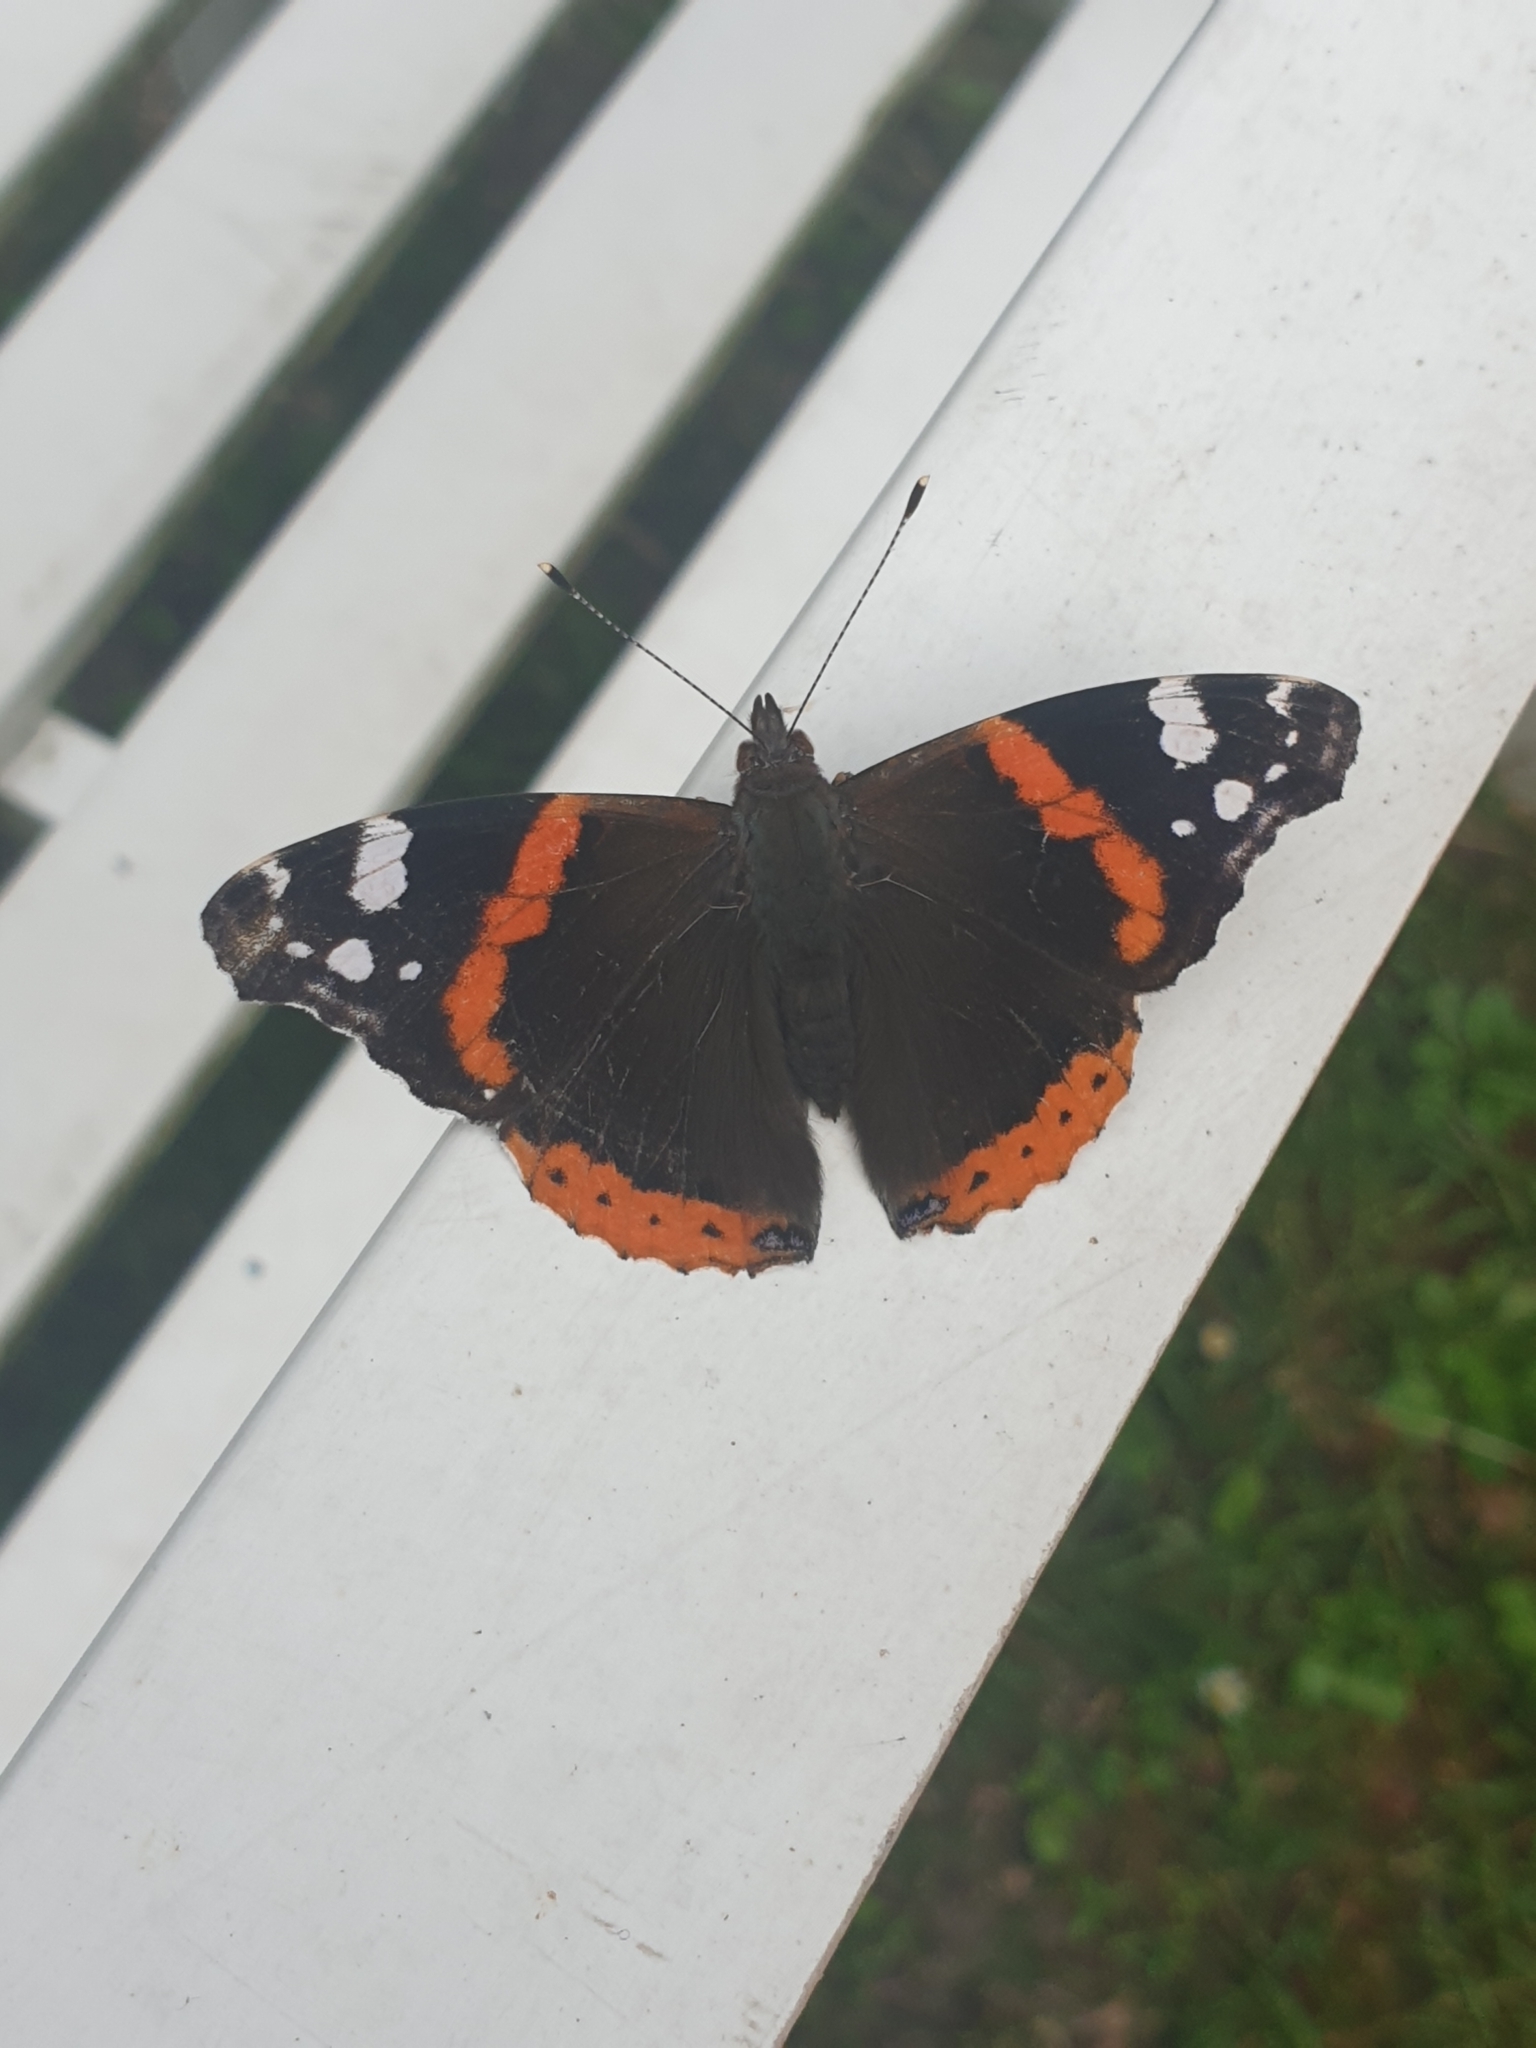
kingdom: Animalia
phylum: Arthropoda
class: Insecta
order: Lepidoptera
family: Nymphalidae
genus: Vanessa
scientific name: Vanessa atalanta
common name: Red admiral
